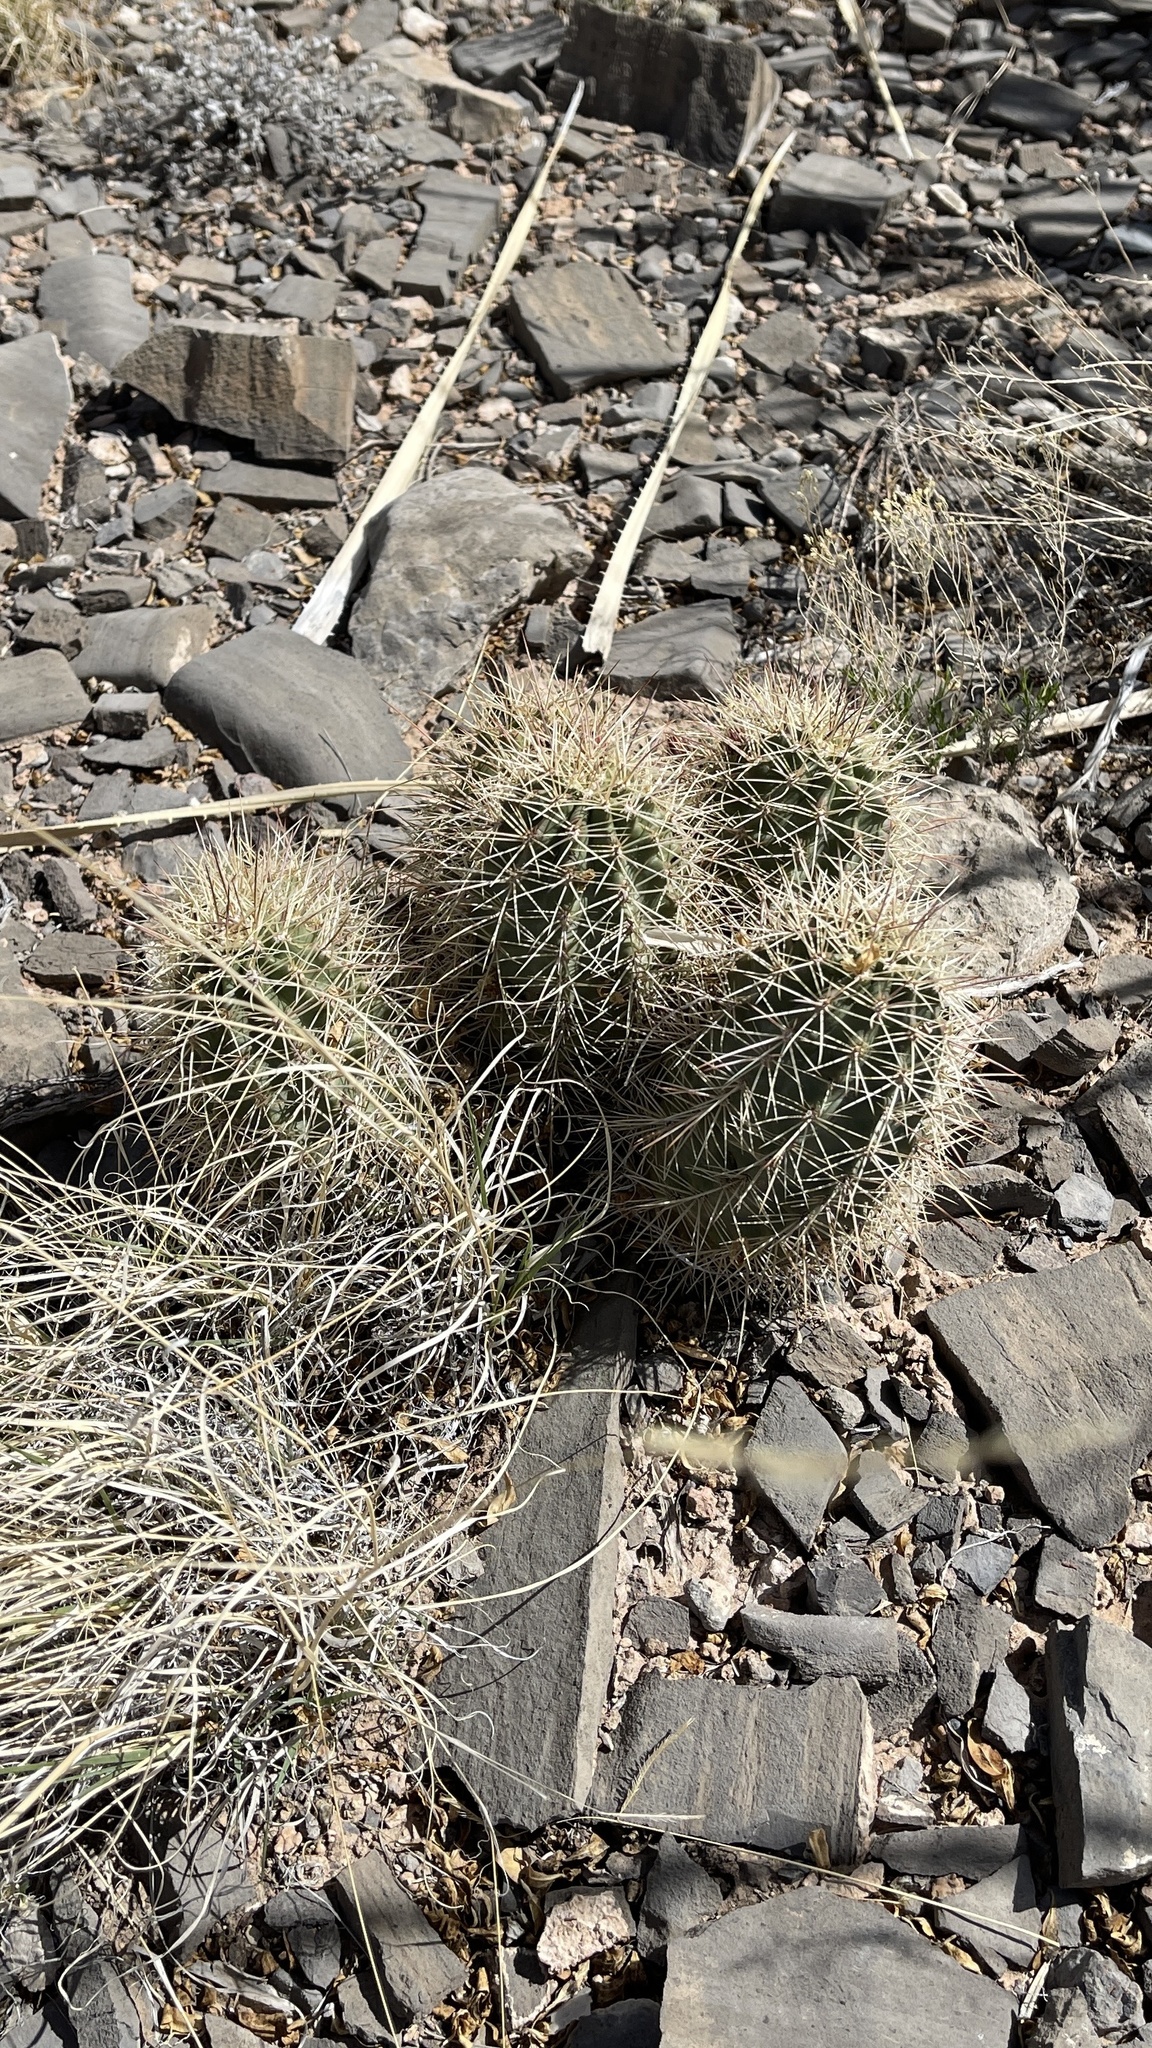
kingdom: Plantae
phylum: Tracheophyta
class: Magnoliopsida
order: Caryophyllales
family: Cactaceae
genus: Echinocereus
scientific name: Echinocereus coccineus
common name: Scarlet hedgehog cactus
